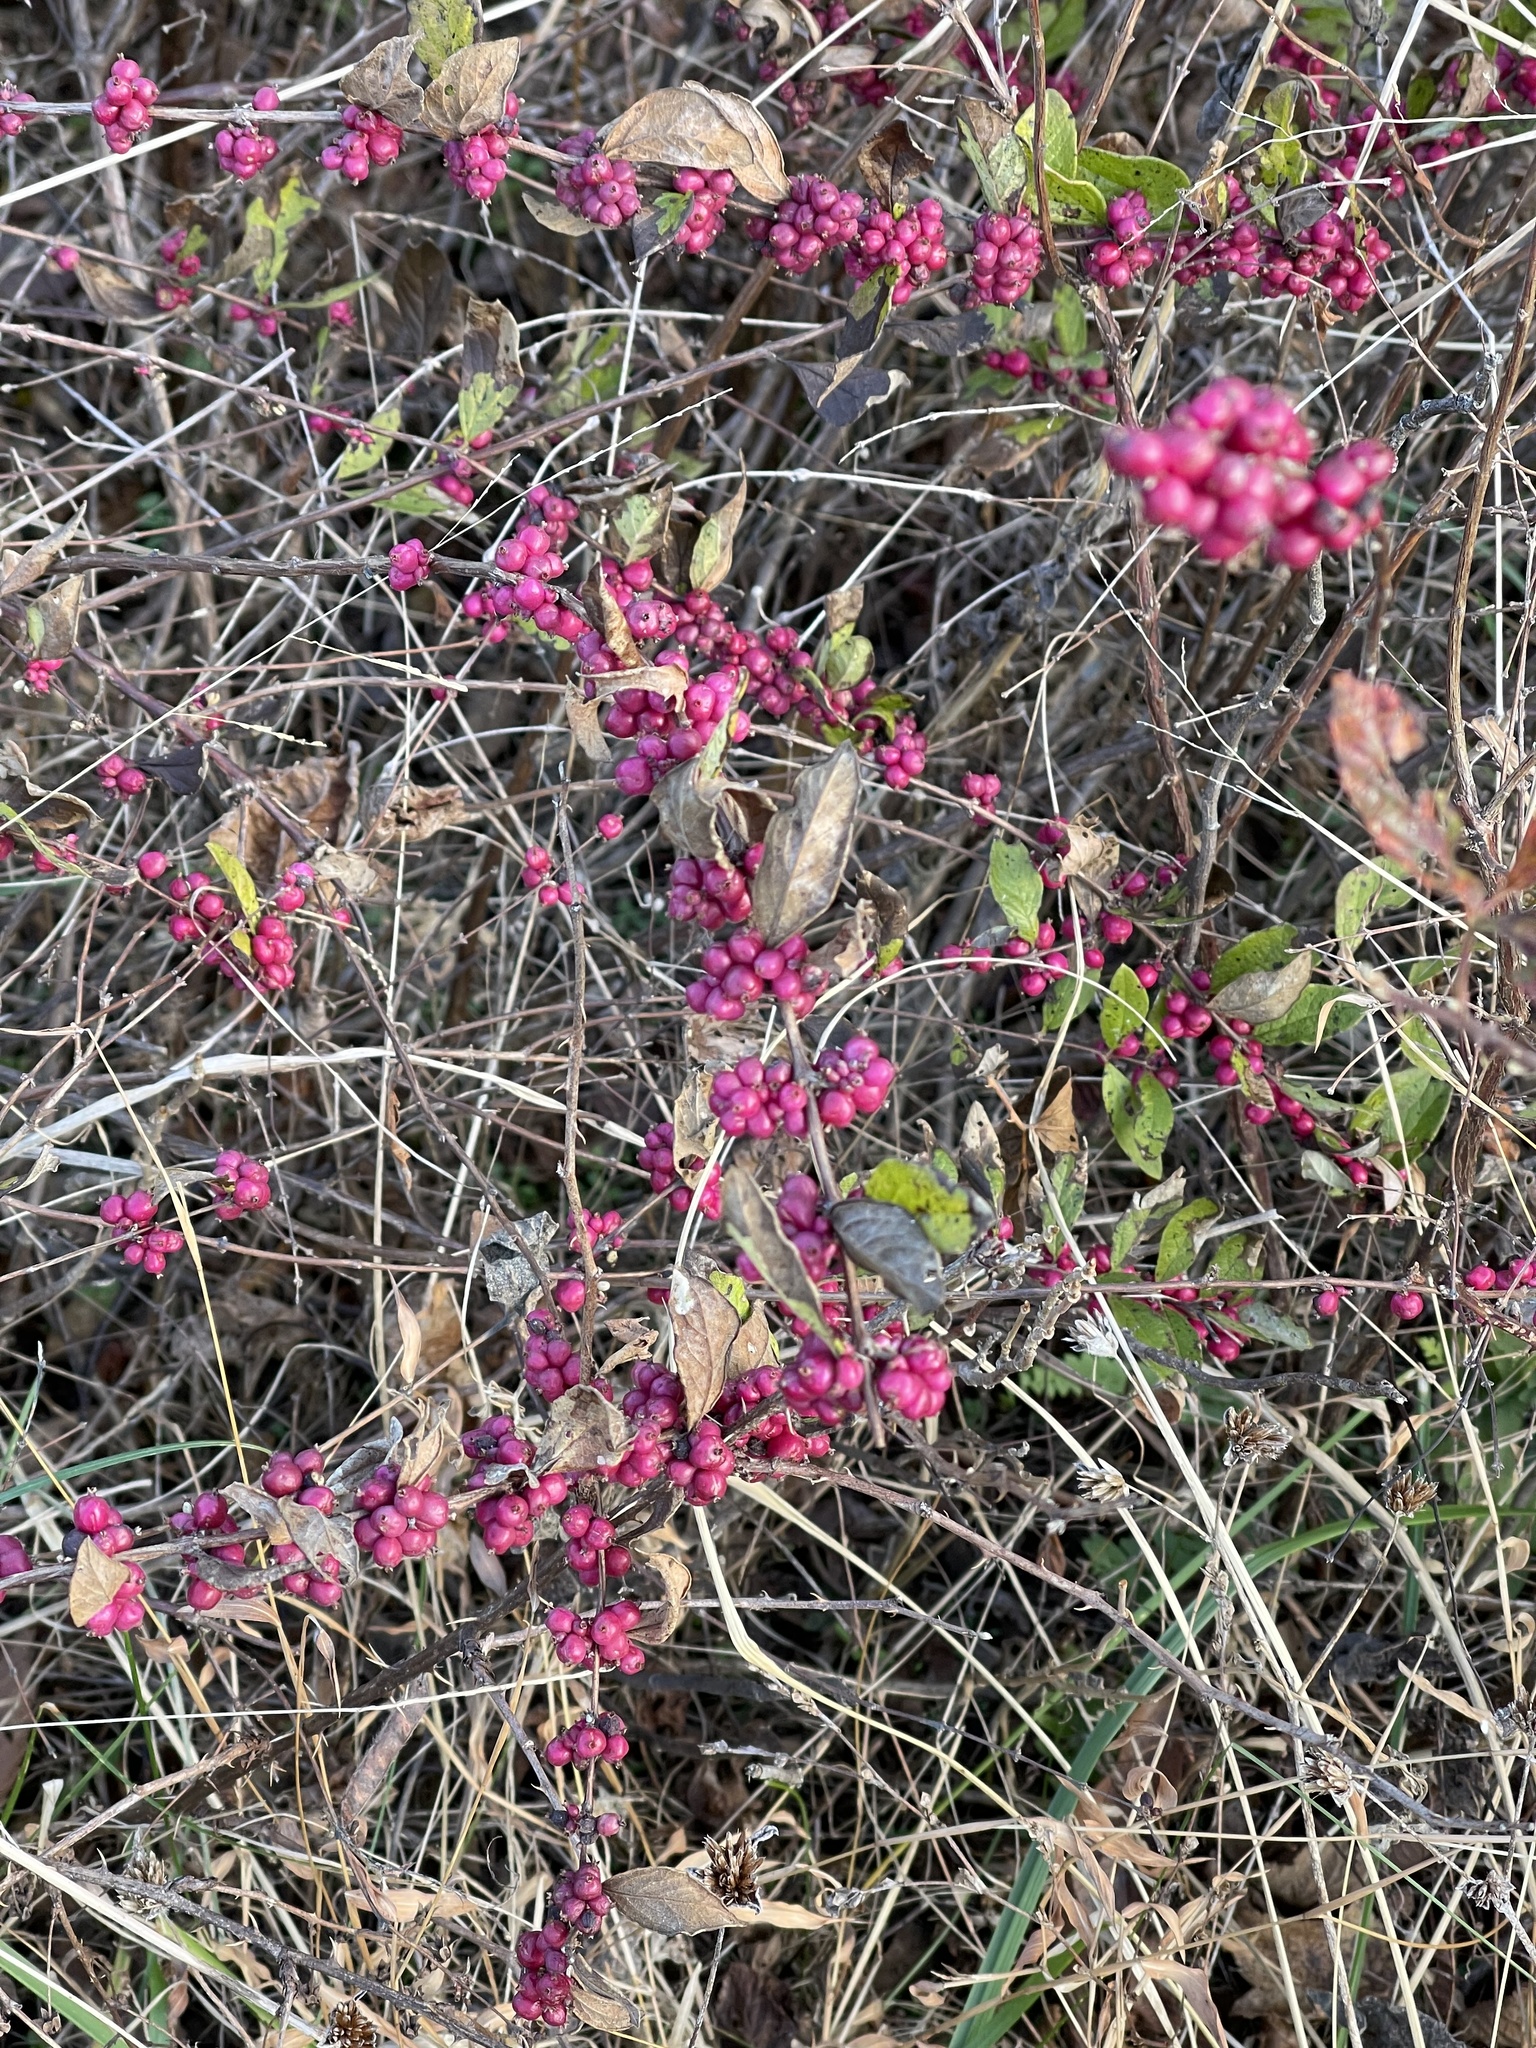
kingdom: Plantae
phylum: Tracheophyta
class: Magnoliopsida
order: Dipsacales
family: Caprifoliaceae
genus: Symphoricarpos
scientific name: Symphoricarpos orbiculatus
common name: Coralberry
